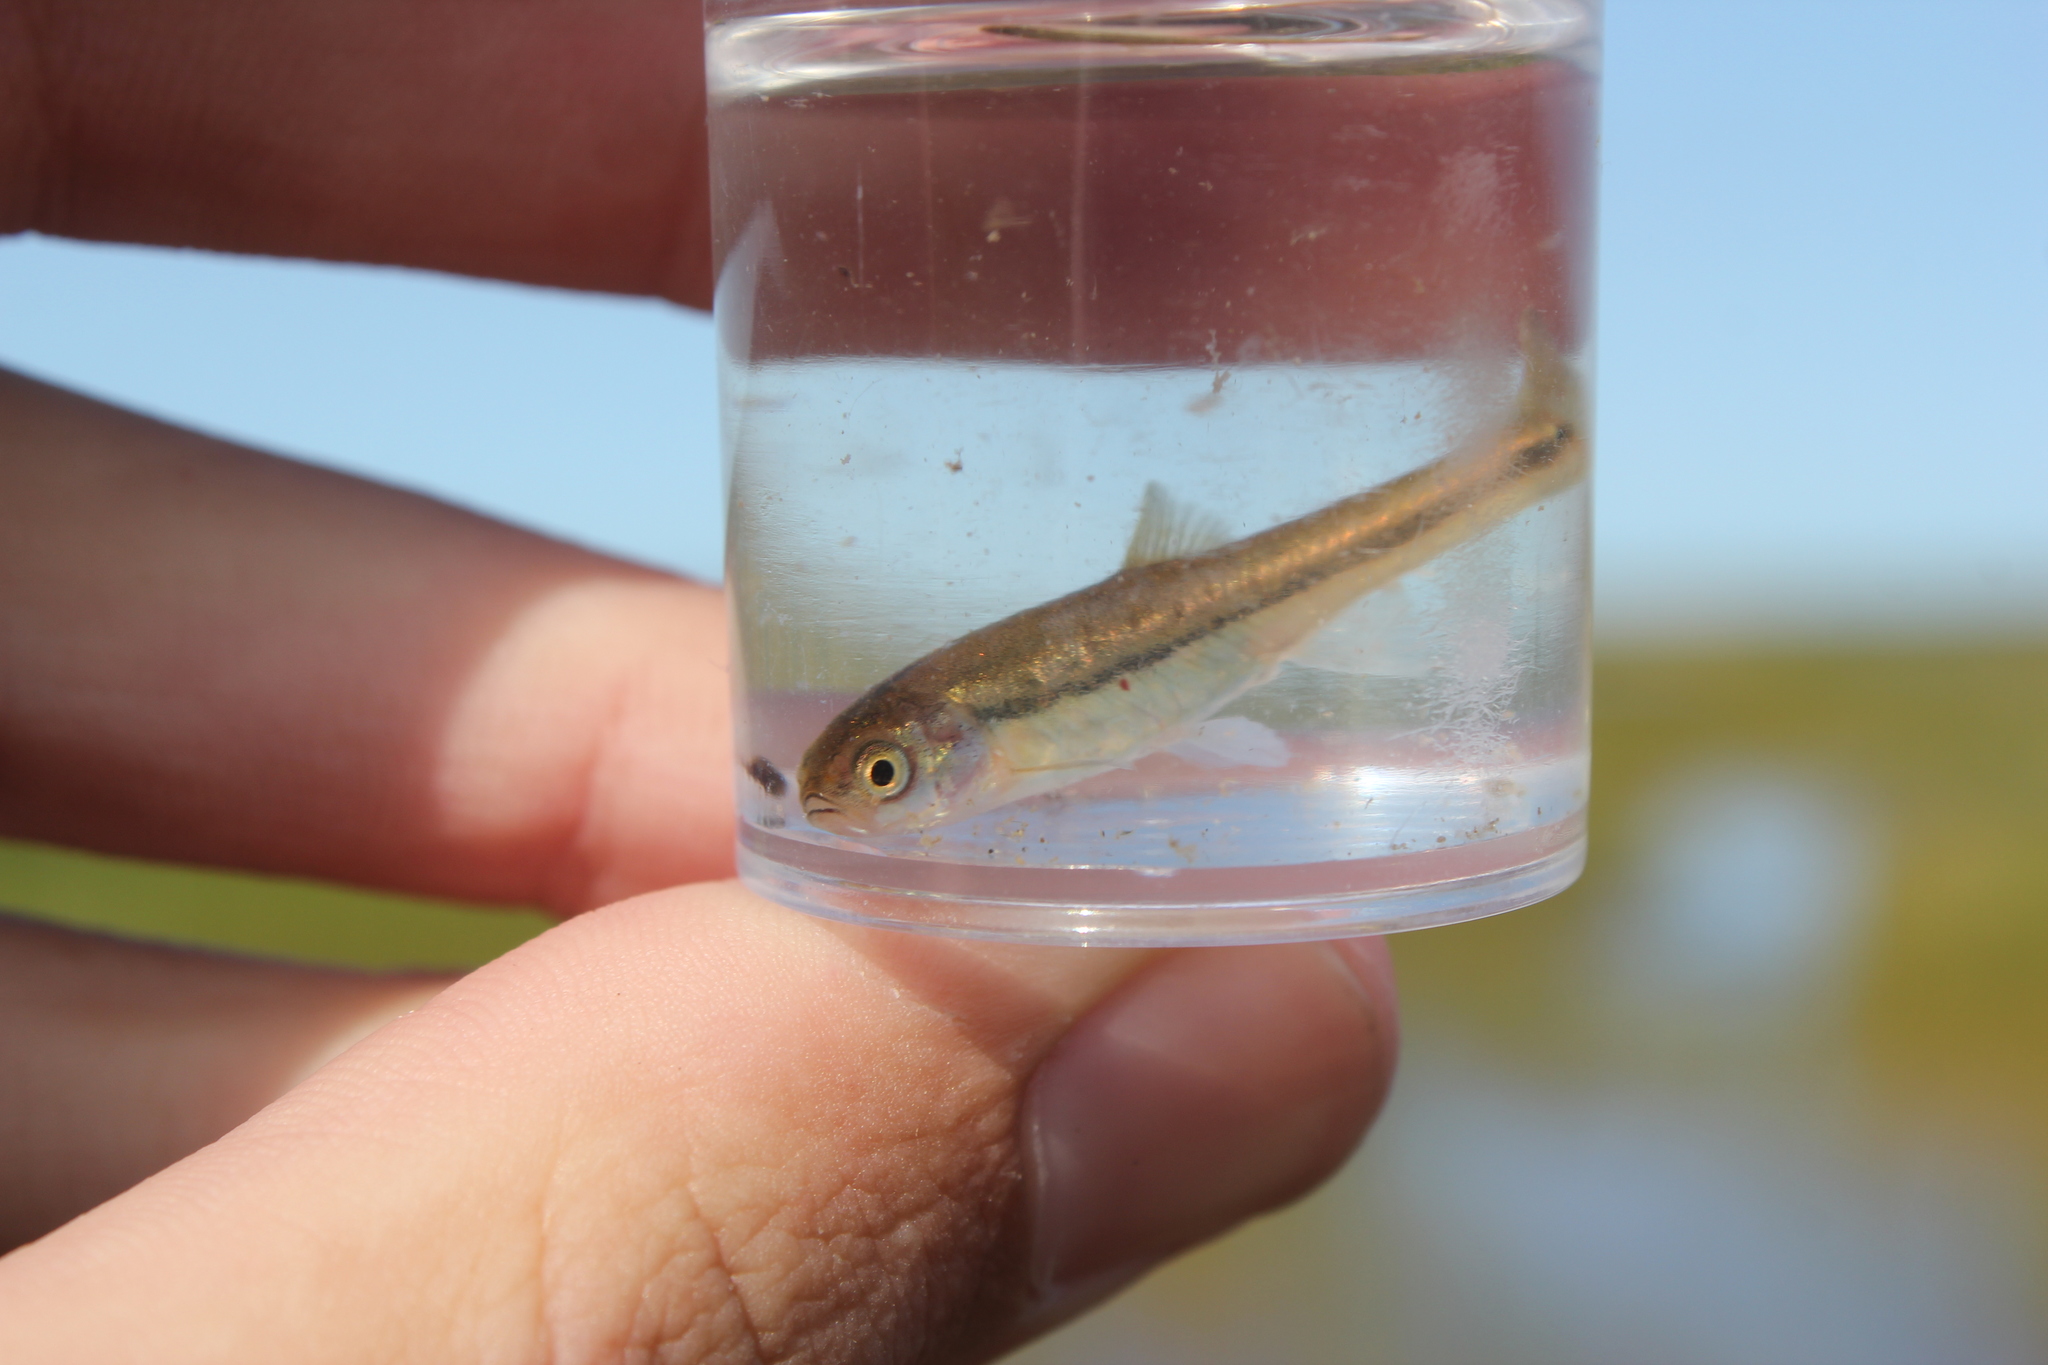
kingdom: Animalia
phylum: Chordata
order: Cypriniformes
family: Cyprinidae
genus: Margariscus
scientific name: Margariscus nachtriebi
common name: Northern pearl dace
